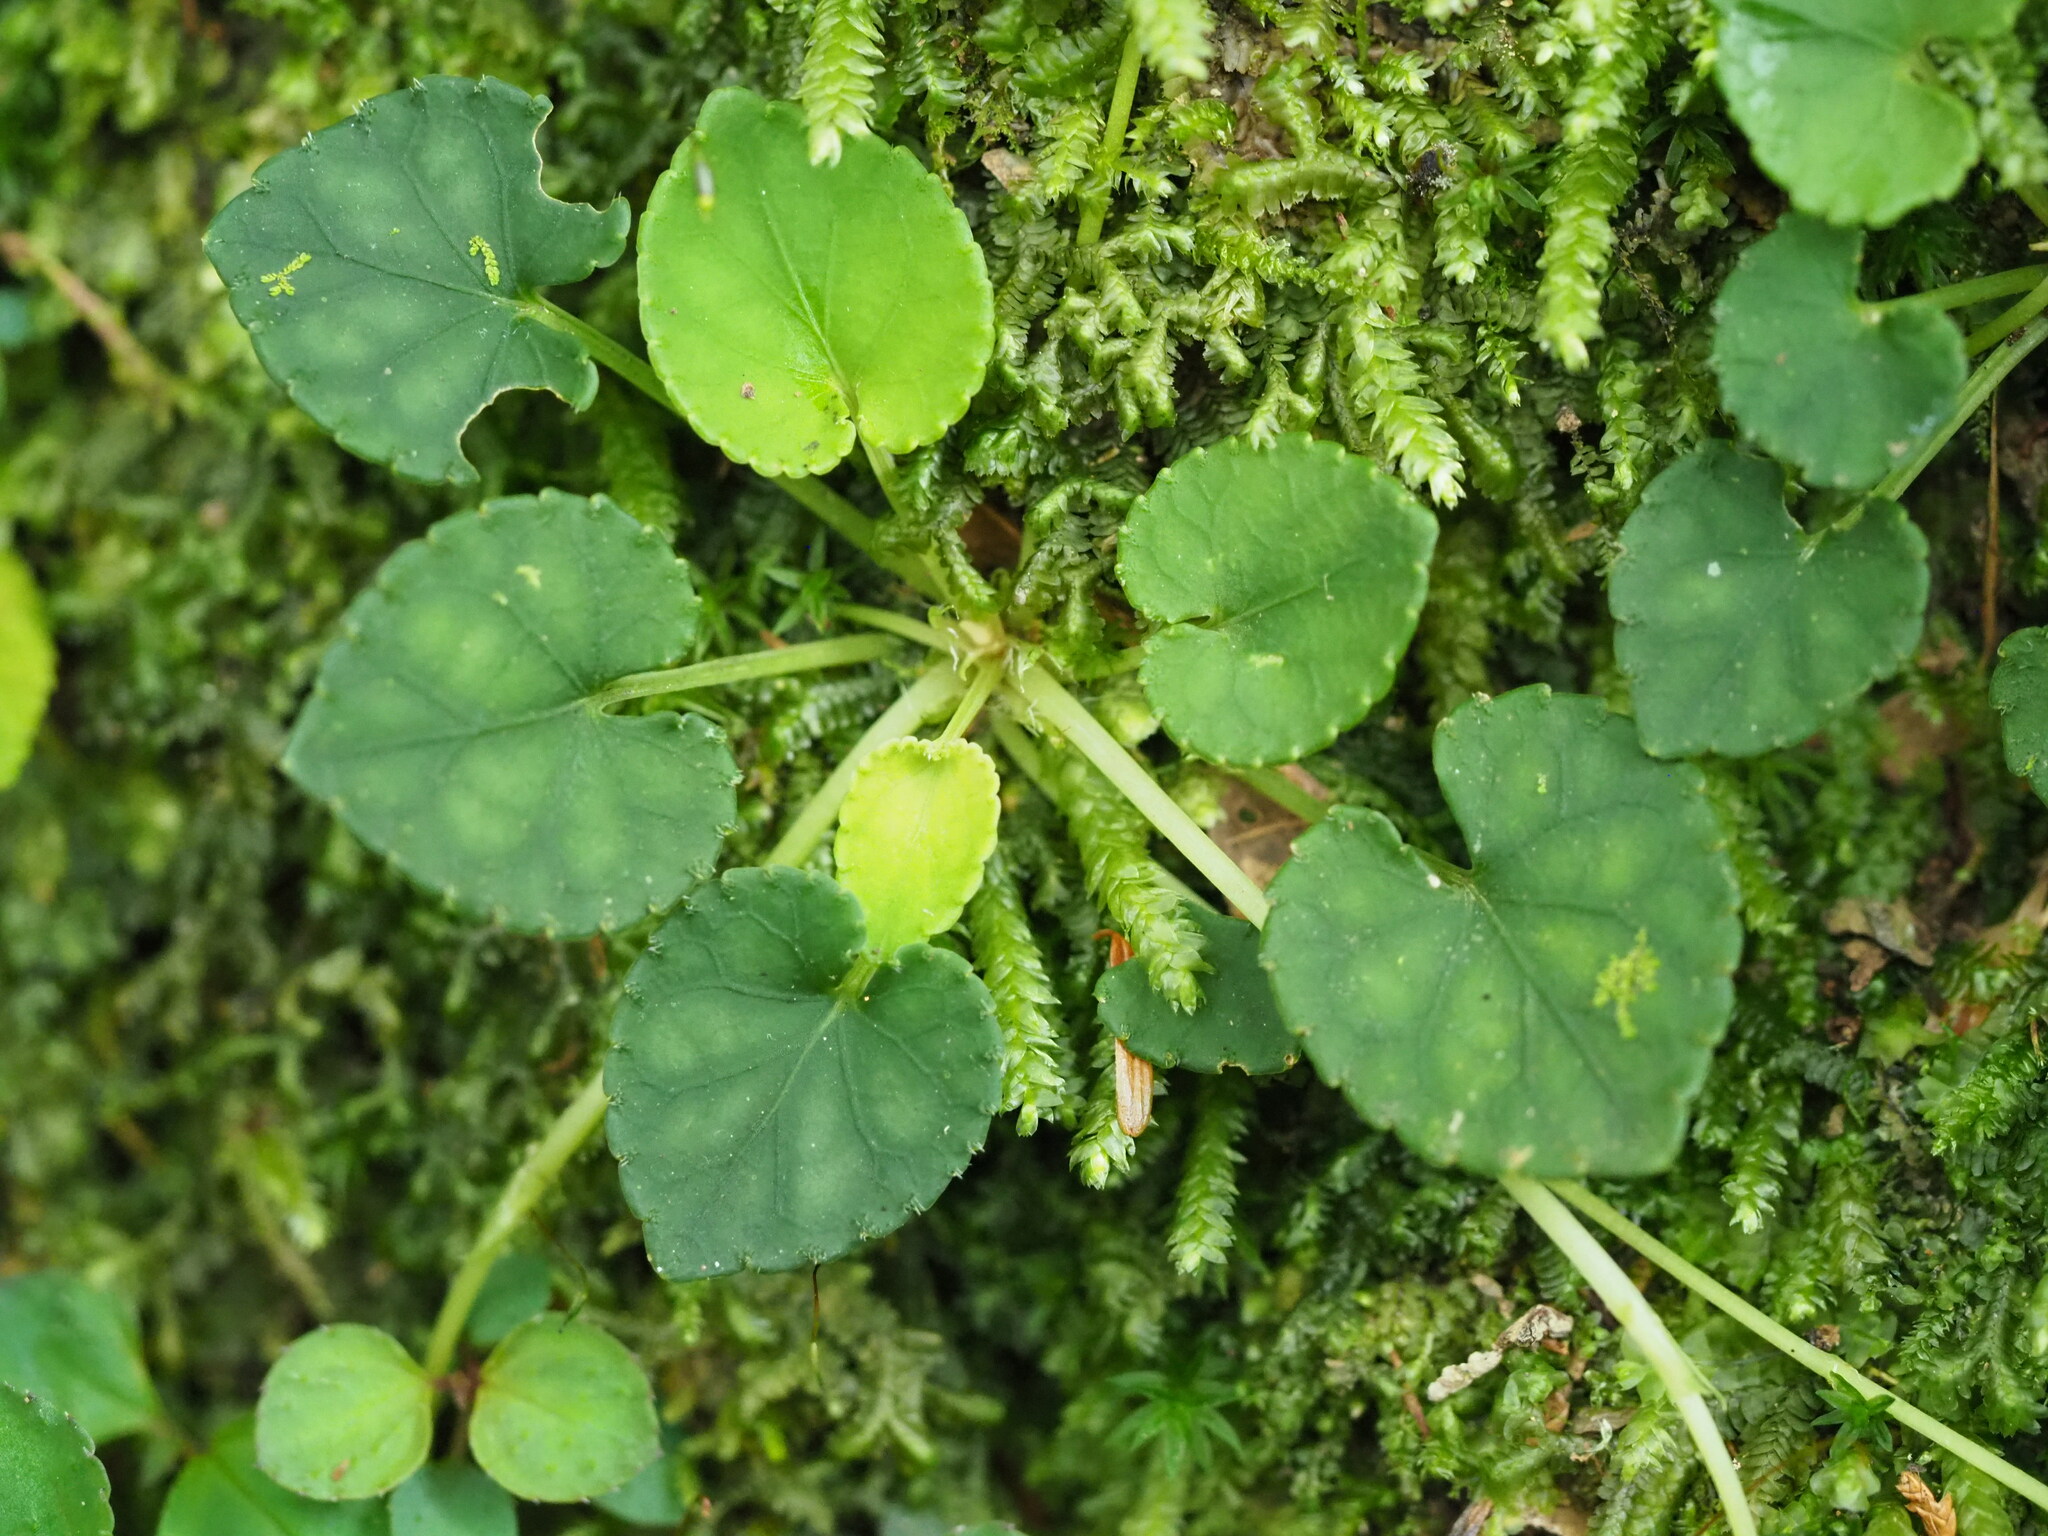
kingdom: Plantae
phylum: Tracheophyta
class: Magnoliopsida
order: Malpighiales
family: Violaceae
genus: Viola
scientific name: Viola formosana
